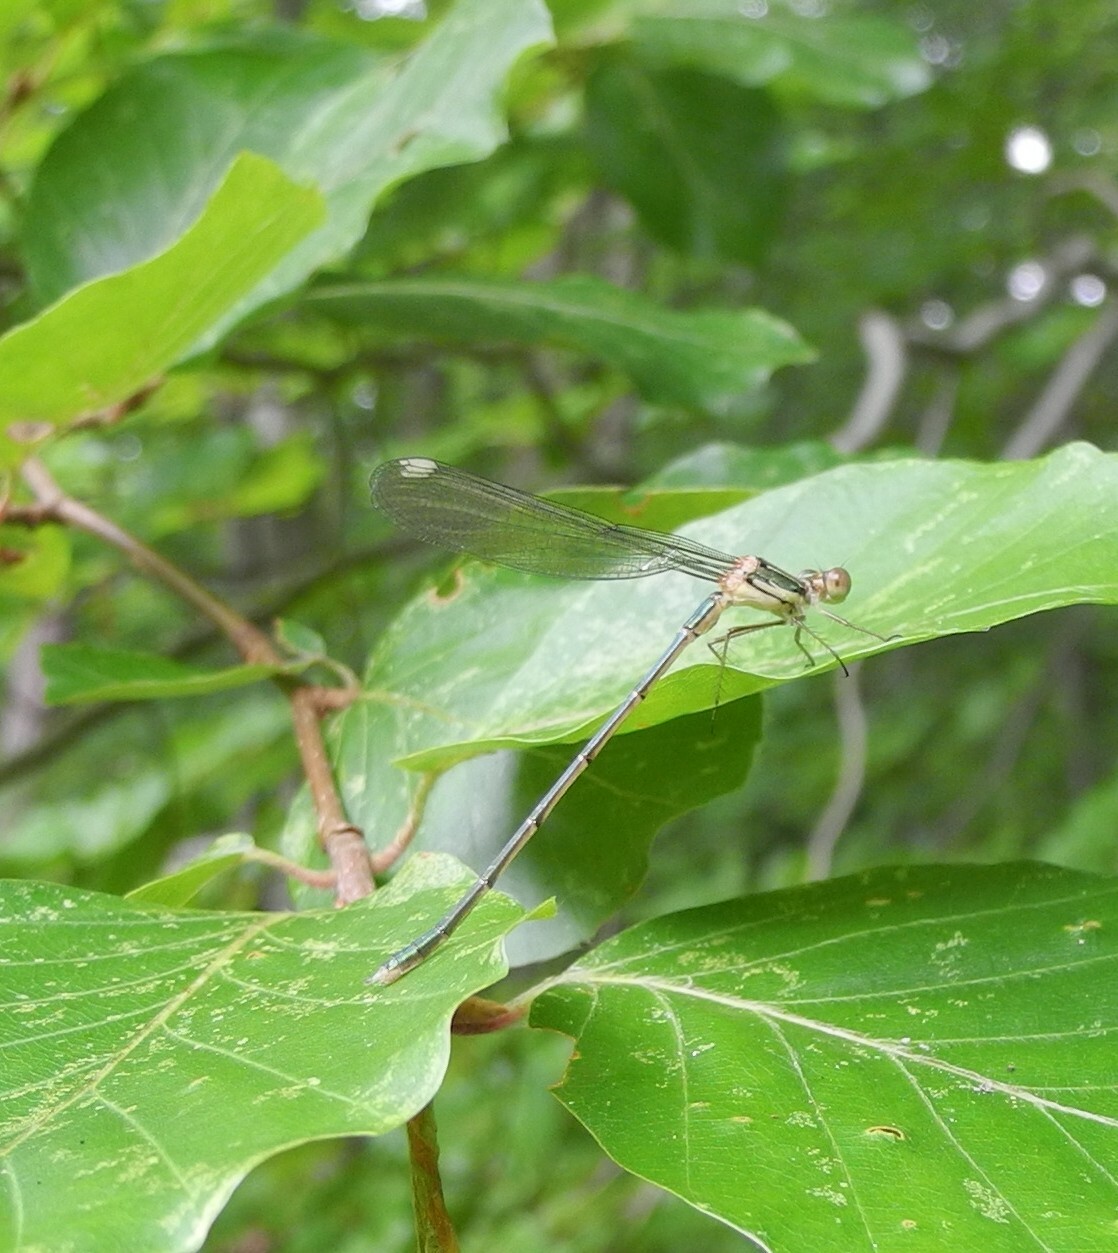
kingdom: Animalia
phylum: Arthropoda
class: Insecta
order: Odonata
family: Lestidae
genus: Chalcolestes
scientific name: Chalcolestes viridis
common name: Green emerald damselfly
